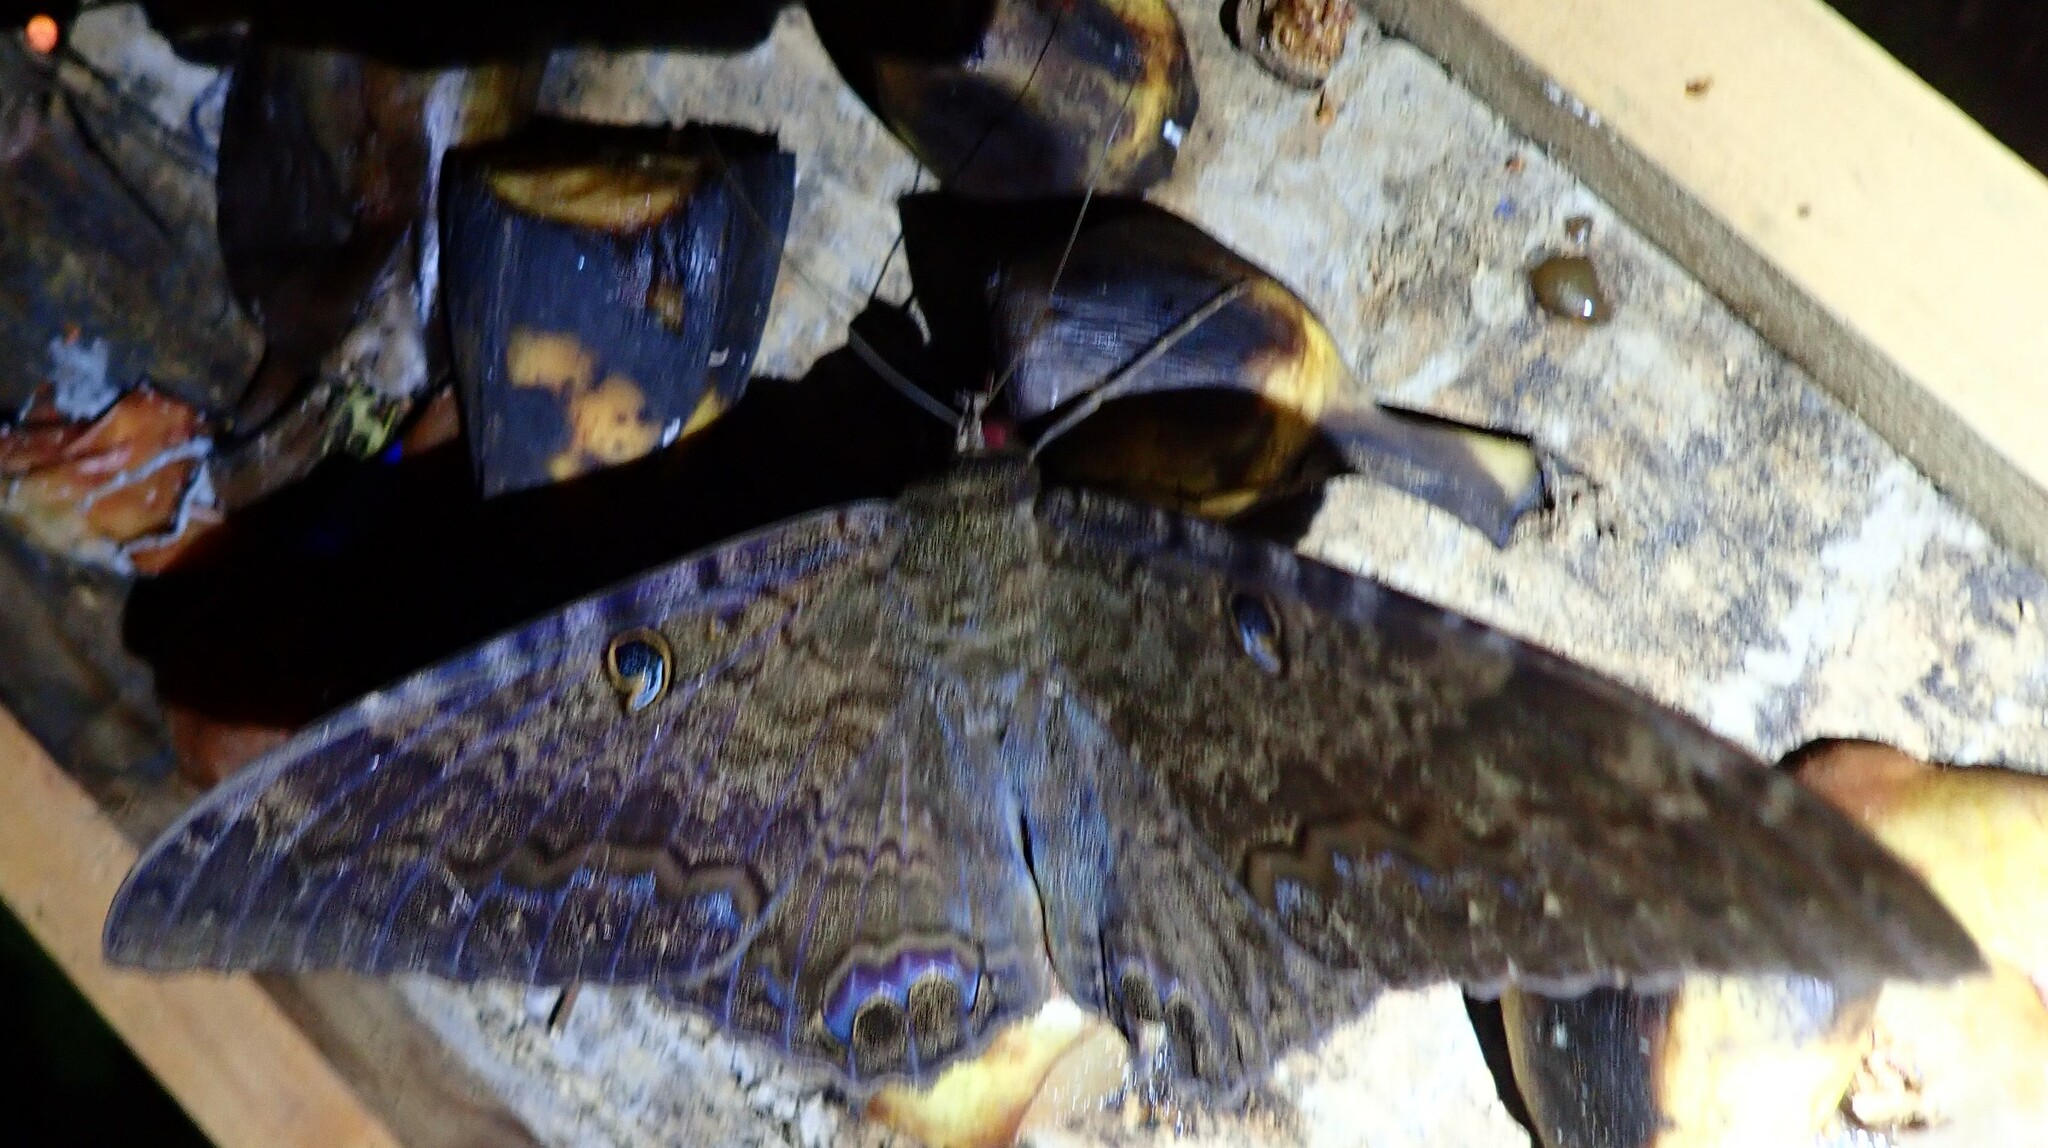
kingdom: Animalia
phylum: Arthropoda
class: Insecta
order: Lepidoptera
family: Erebidae
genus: Ascalapha
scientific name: Ascalapha odorata
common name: Black witch
